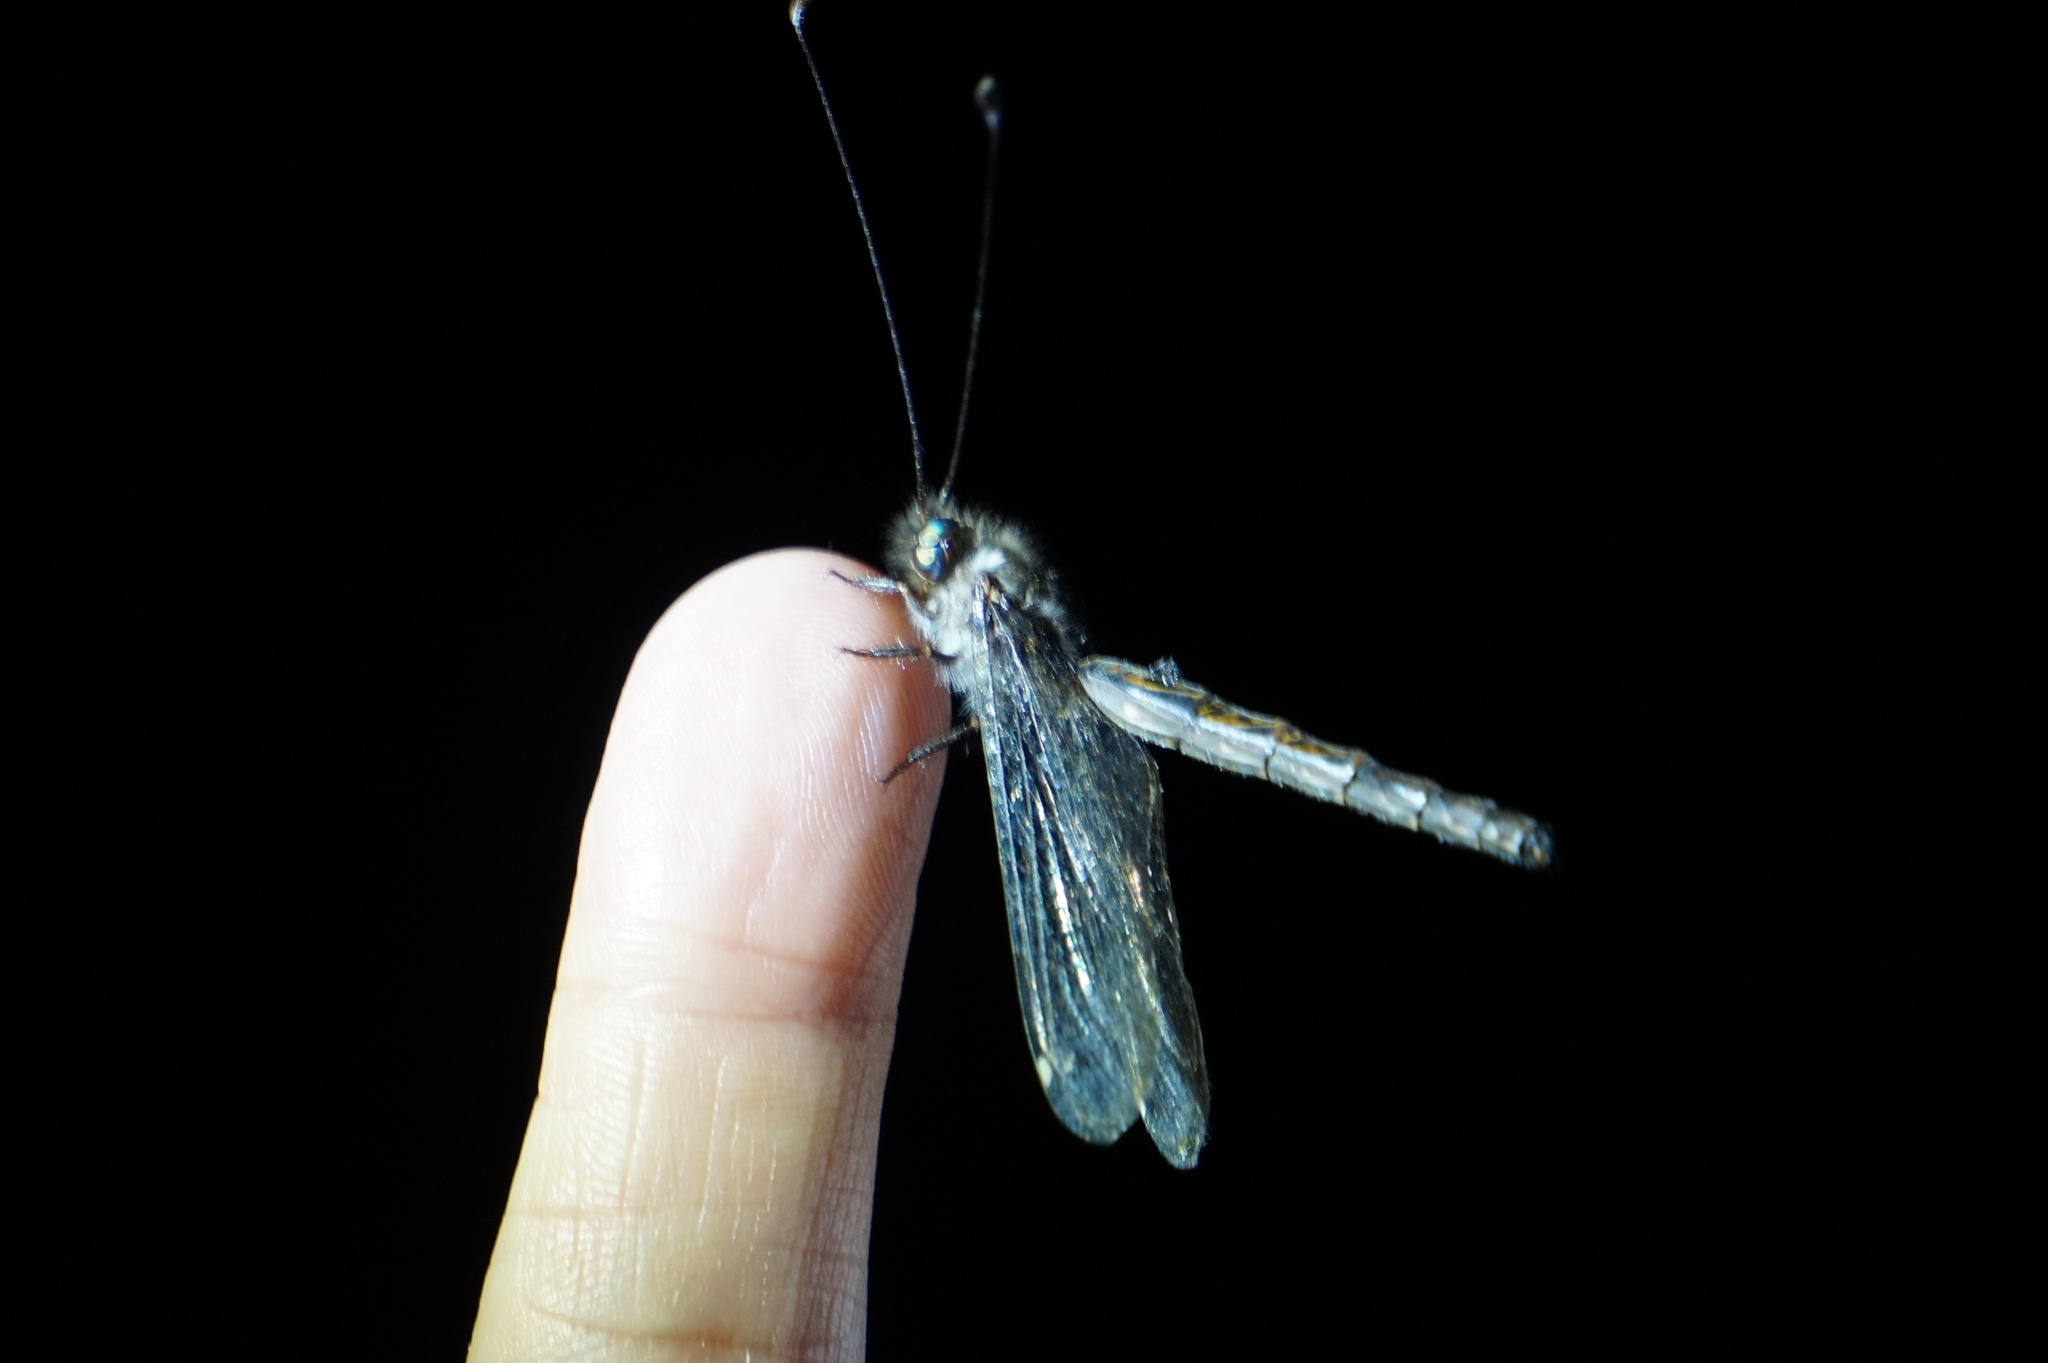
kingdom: Animalia
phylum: Arthropoda
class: Insecta
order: Neuroptera
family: Ascalaphidae
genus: Ululodes
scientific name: Ululodes quadripunctatus
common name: Four-spotted owlfly
